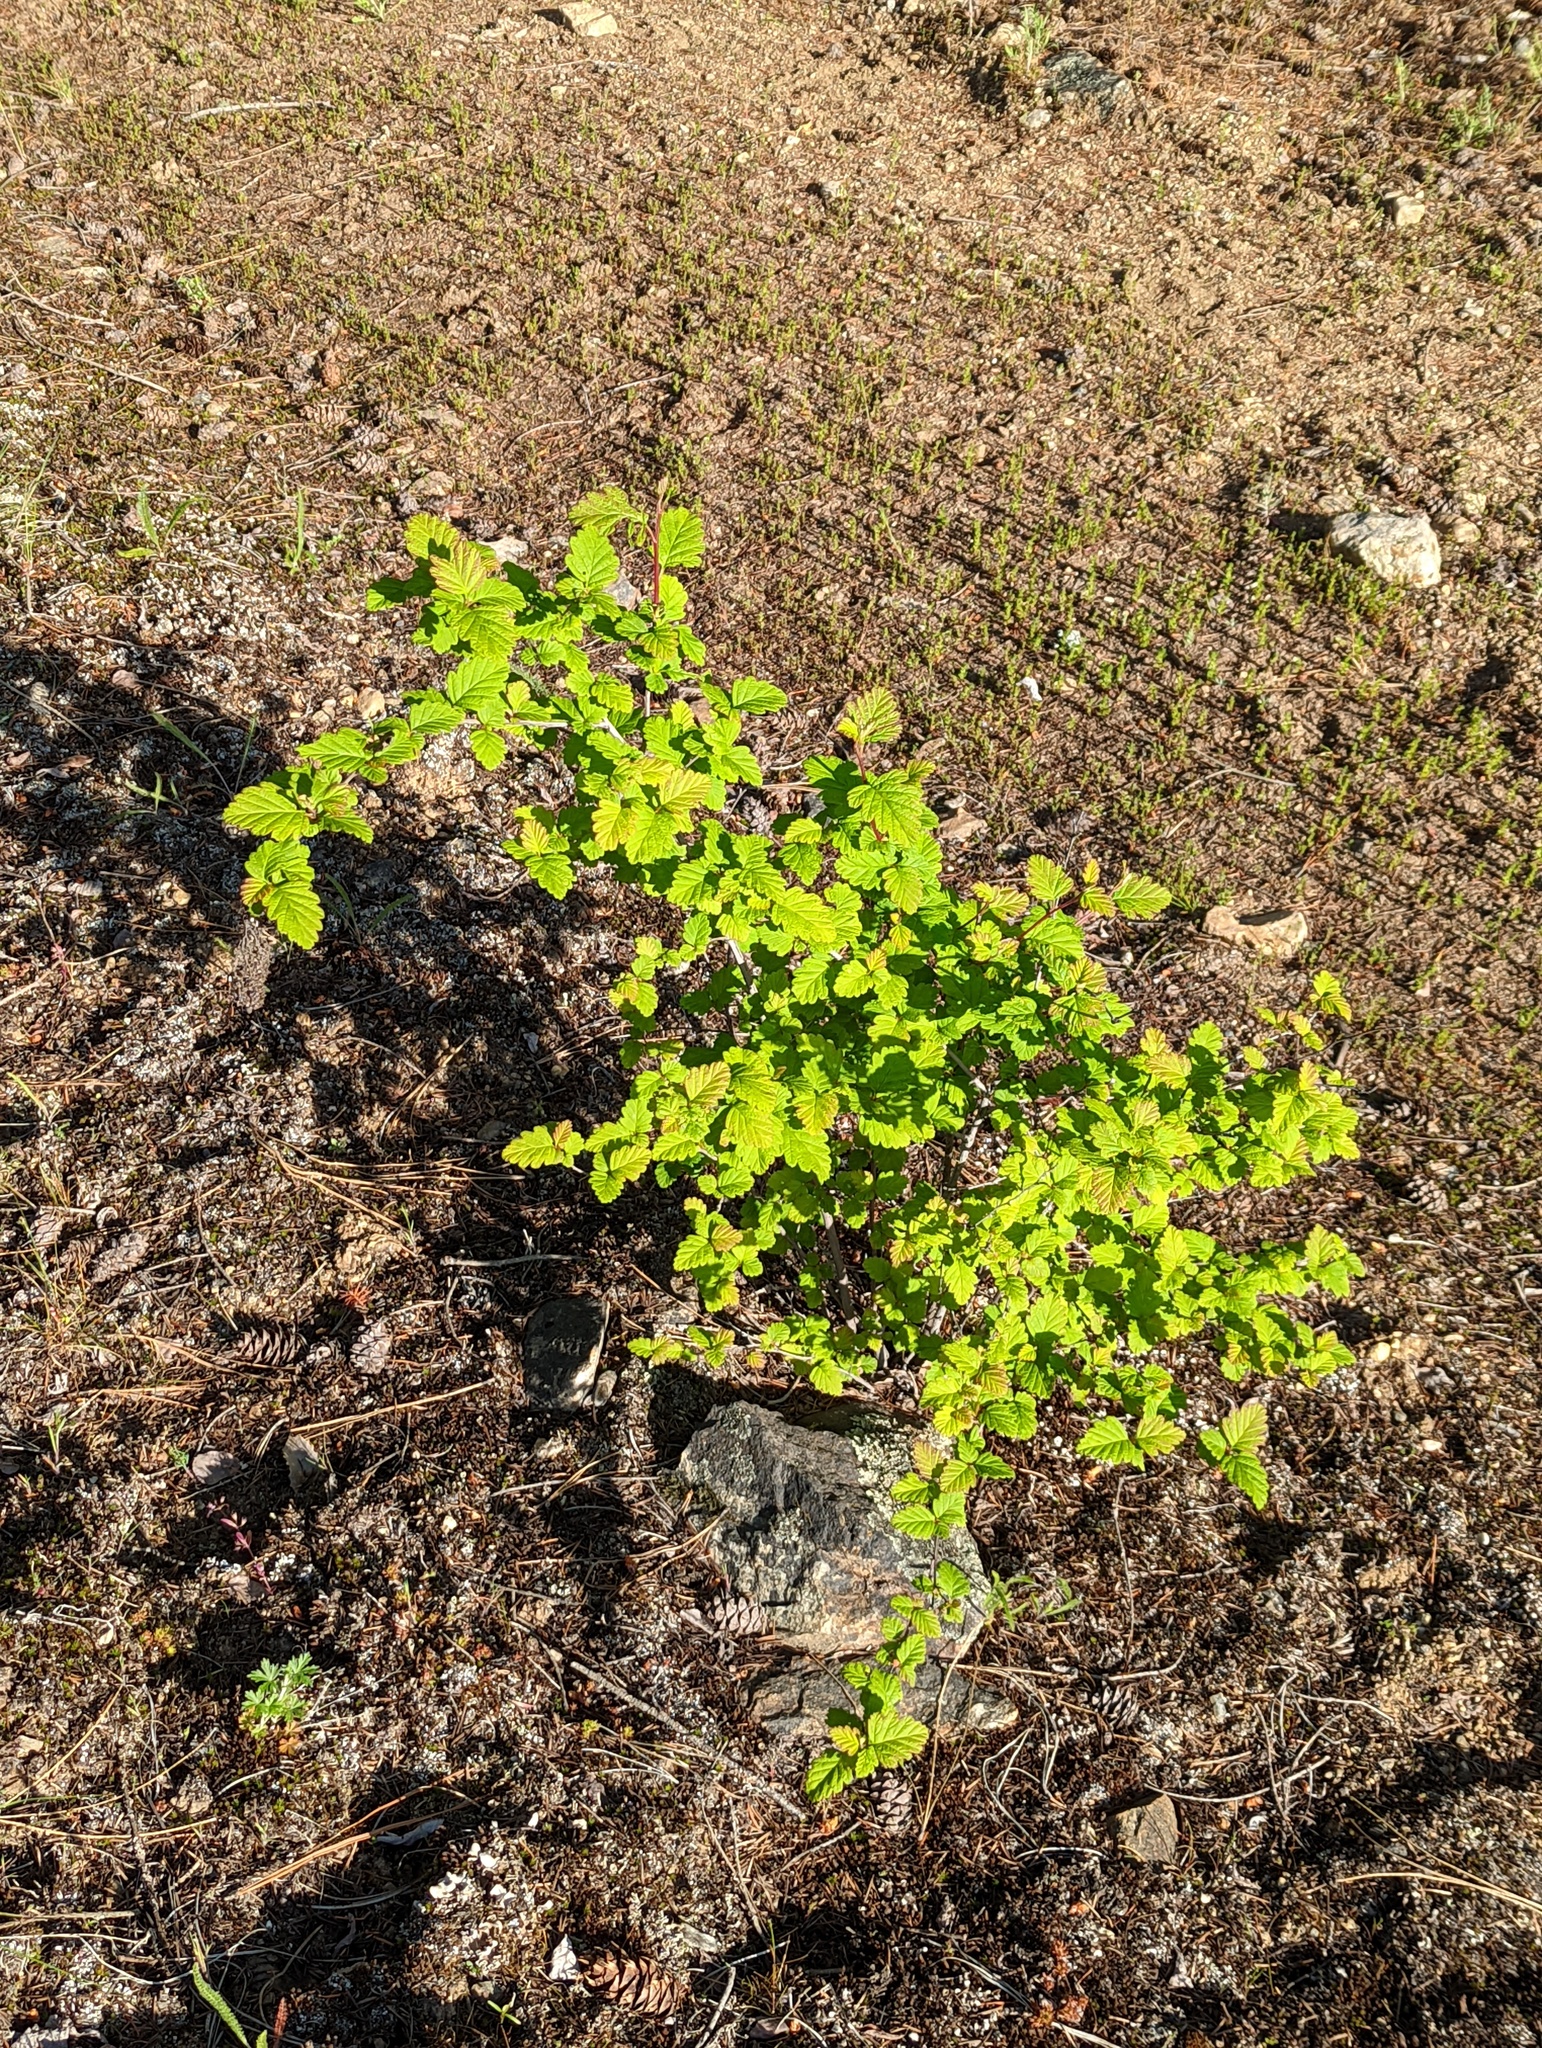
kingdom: Plantae
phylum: Tracheophyta
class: Magnoliopsida
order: Rosales
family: Rosaceae
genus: Holodiscus
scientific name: Holodiscus discolor
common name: Oceanspray
